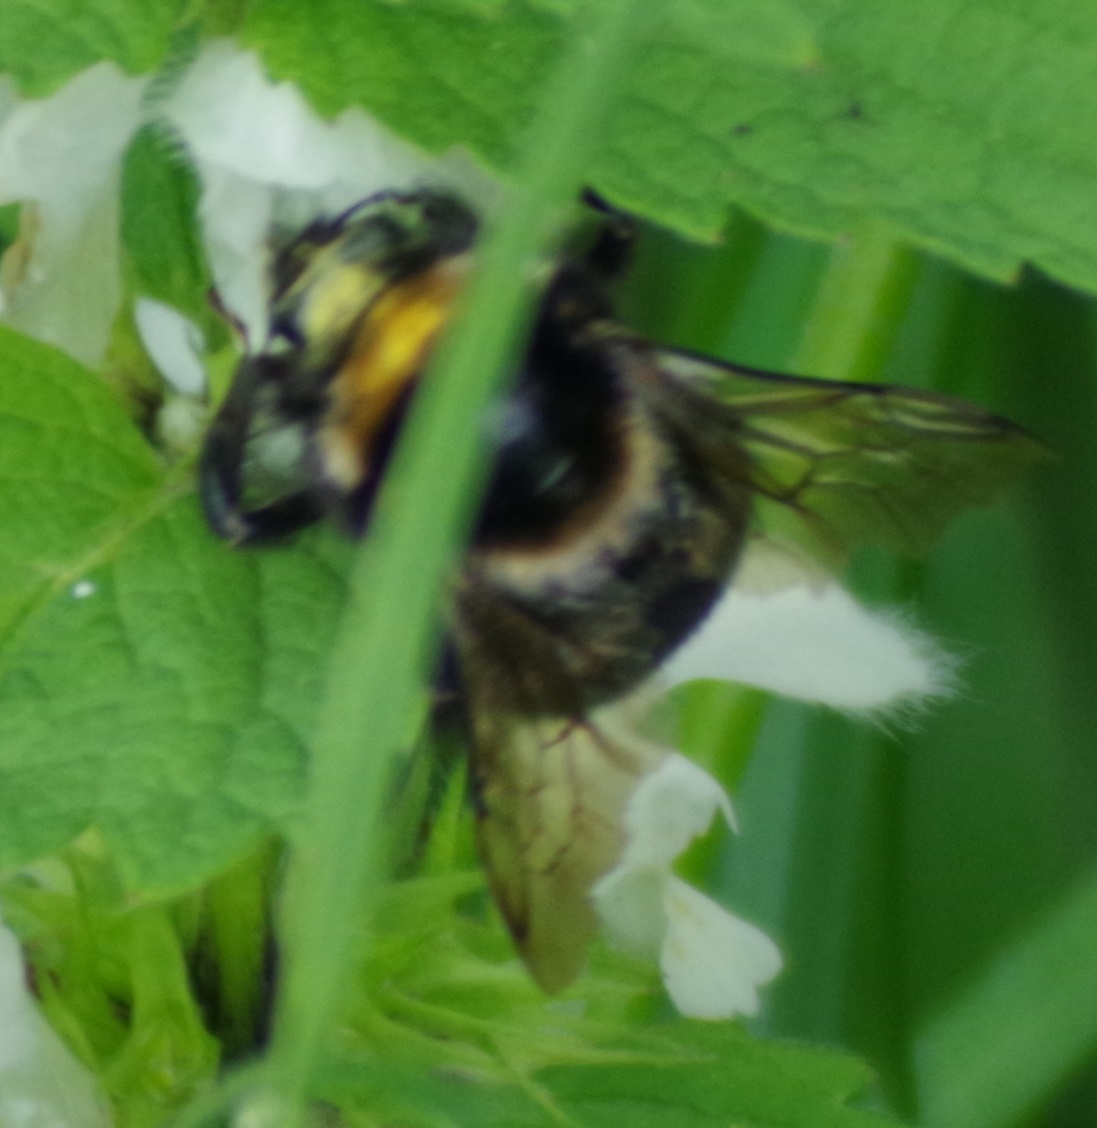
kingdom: Animalia
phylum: Arthropoda
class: Insecta
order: Hymenoptera
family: Apidae
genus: Bombus
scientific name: Bombus subterraneus
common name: Short-haired humble-bee
